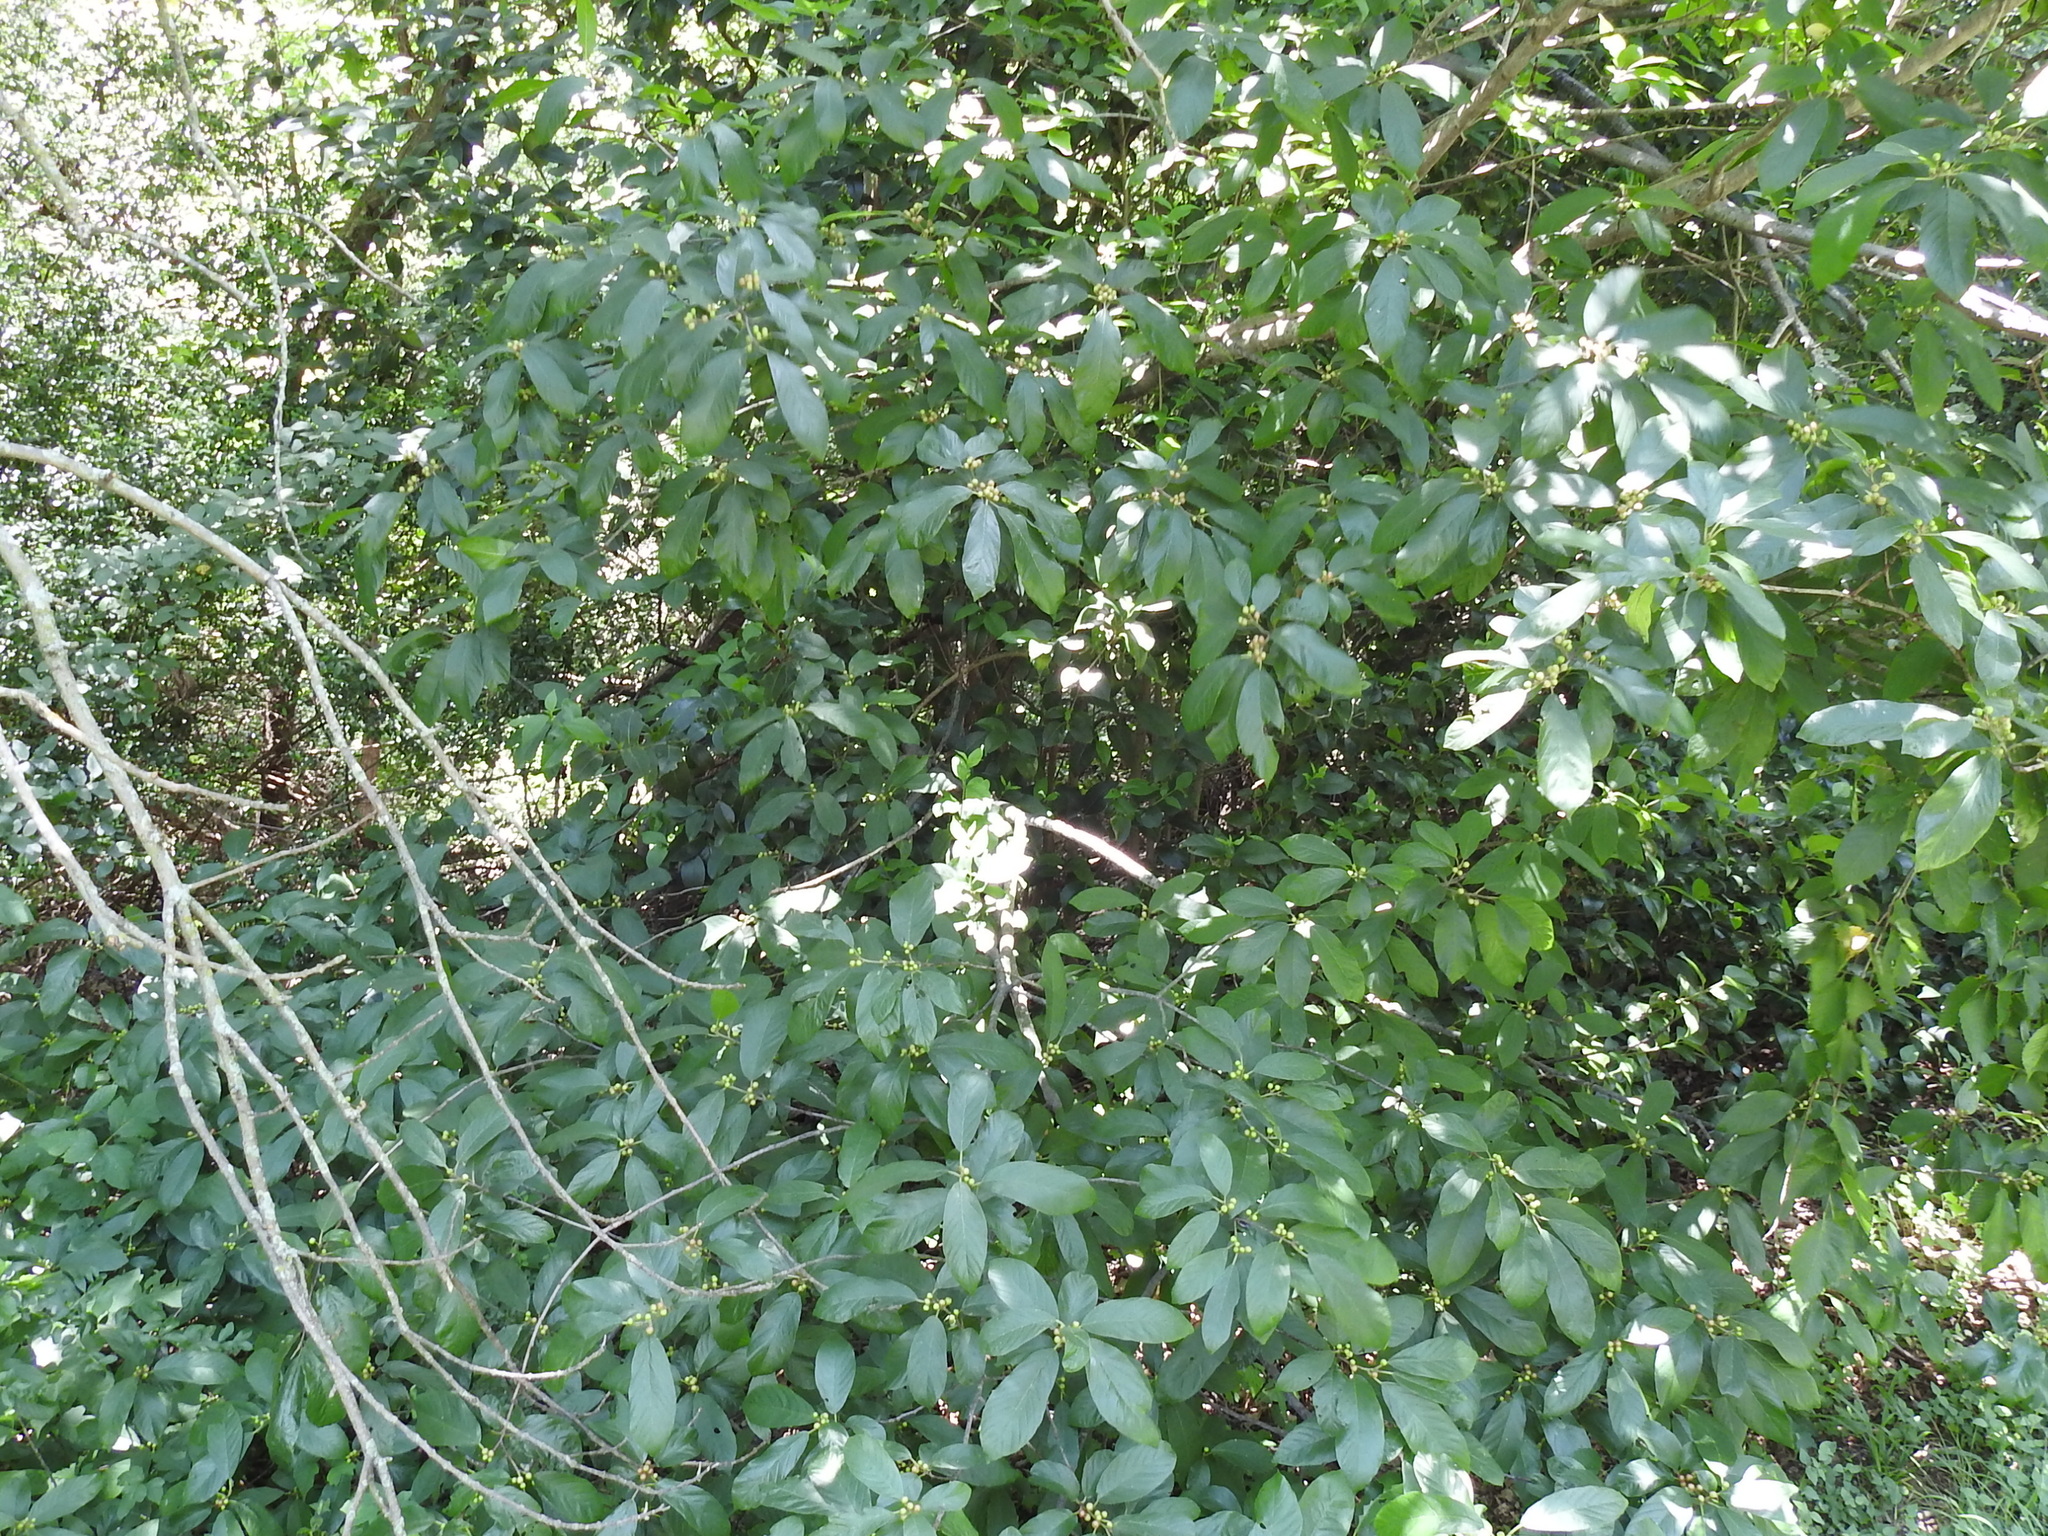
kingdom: Plantae
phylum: Tracheophyta
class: Magnoliopsida
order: Rosales
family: Rhamnaceae
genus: Frangula
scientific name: Frangula caroliniana
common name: Carolina buckthorn
